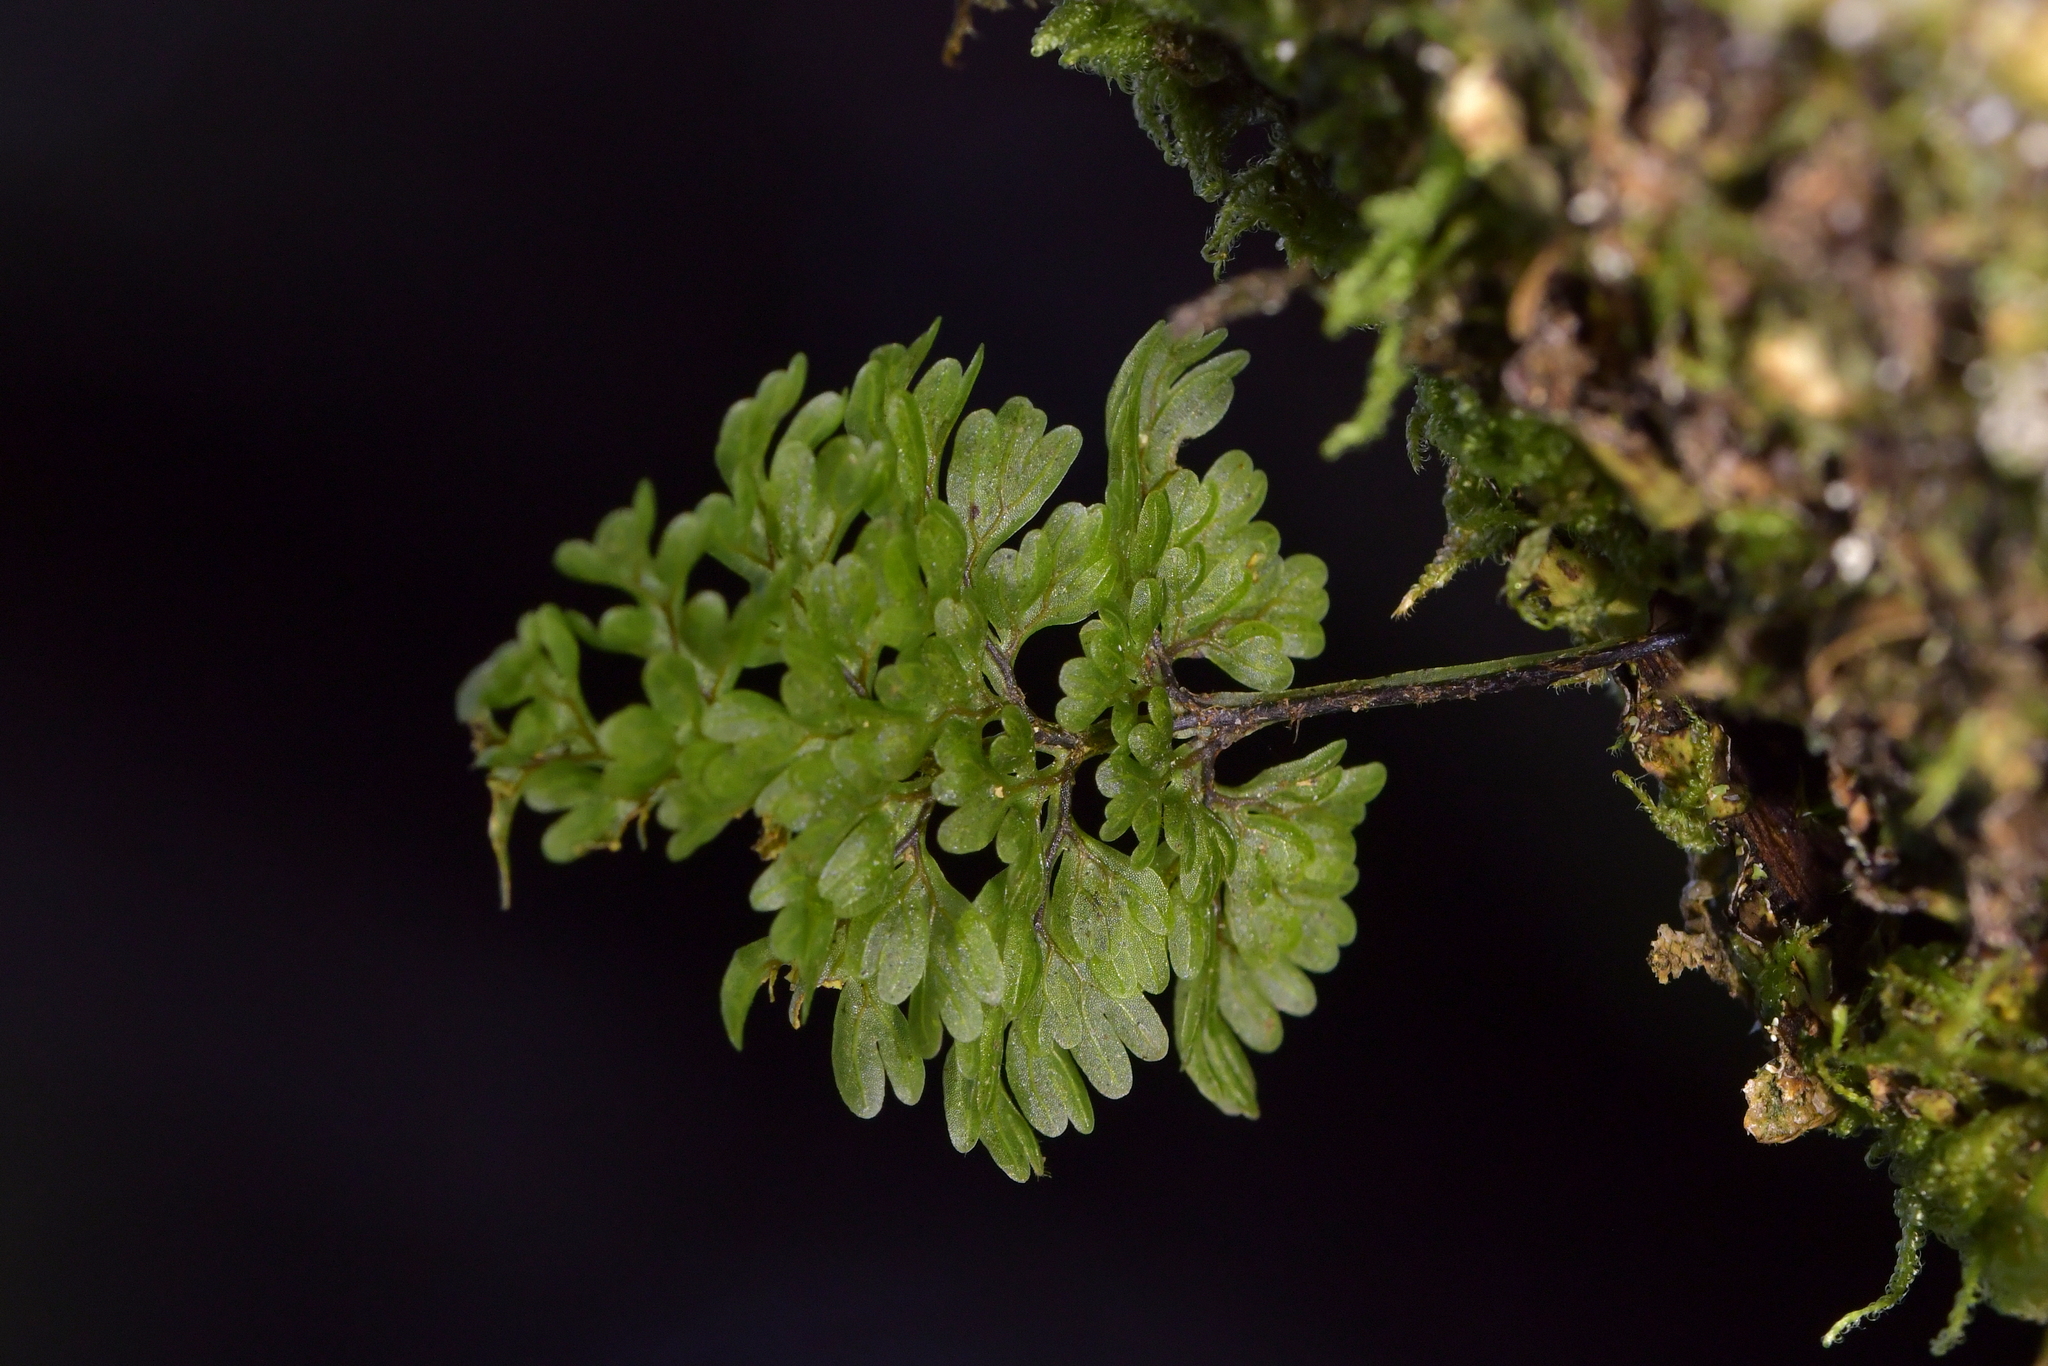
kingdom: Plantae
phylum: Tracheophyta
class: Polypodiopsida
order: Hymenophyllales
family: Hymenophyllaceae
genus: Hymenophyllum
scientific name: Hymenophyllum sanguinolentum
